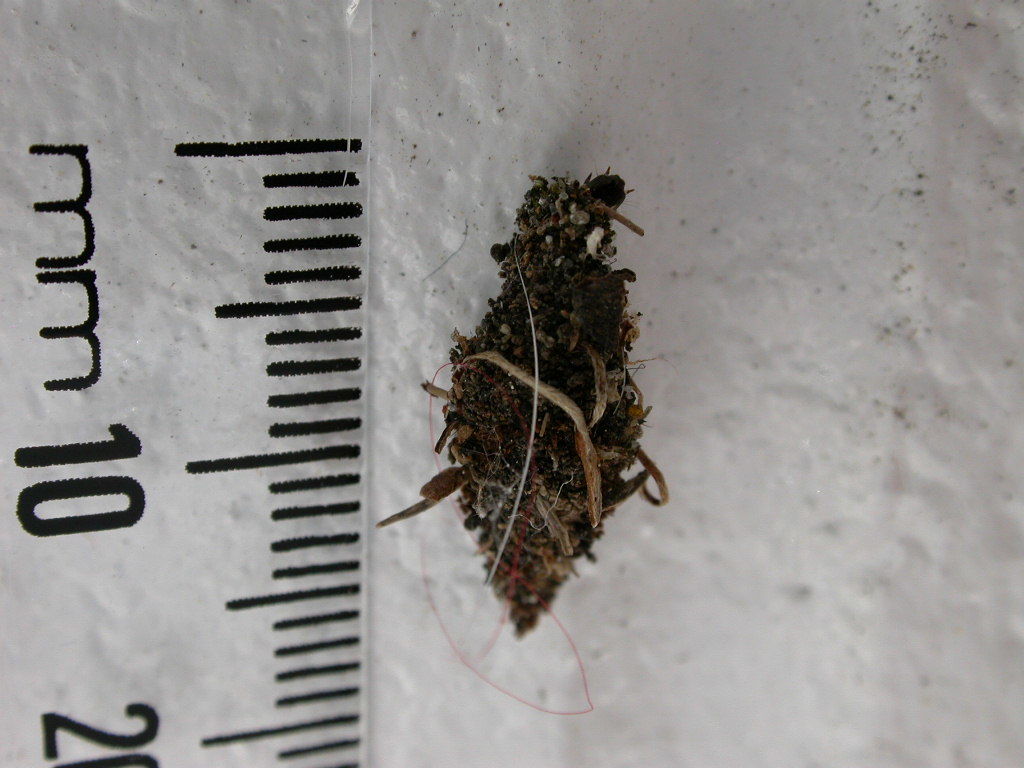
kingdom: Animalia
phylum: Arthropoda
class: Insecta
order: Lepidoptera
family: Psychidae
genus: Cebysa
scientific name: Cebysa leucotelus
